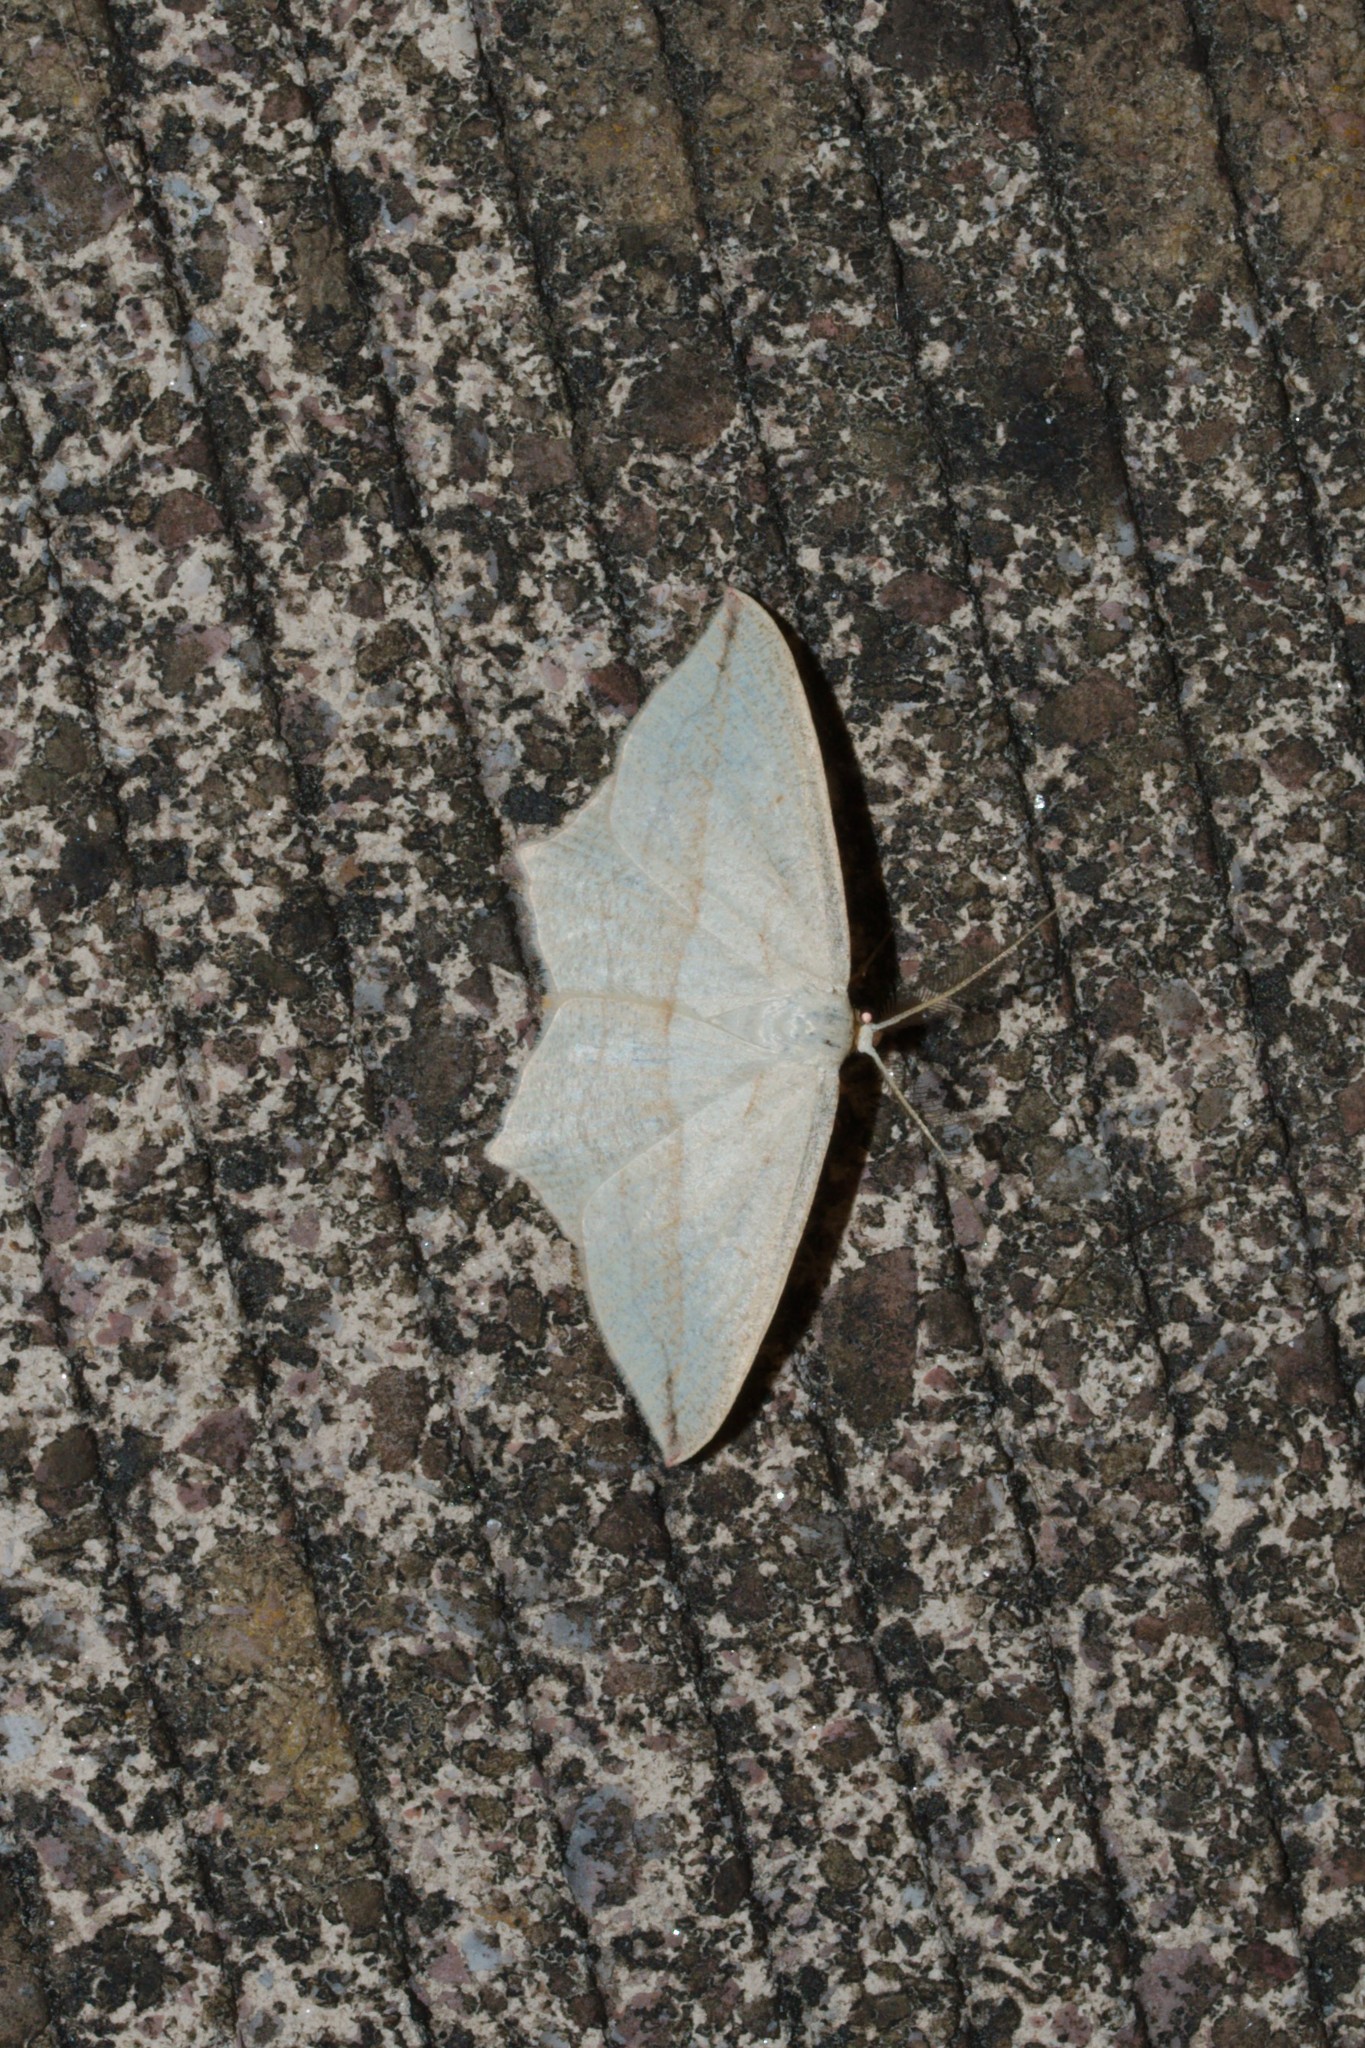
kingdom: Animalia
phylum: Arthropoda
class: Insecta
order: Lepidoptera
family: Geometridae
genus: Timandra
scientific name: Timandra comae
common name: Blood-vein
